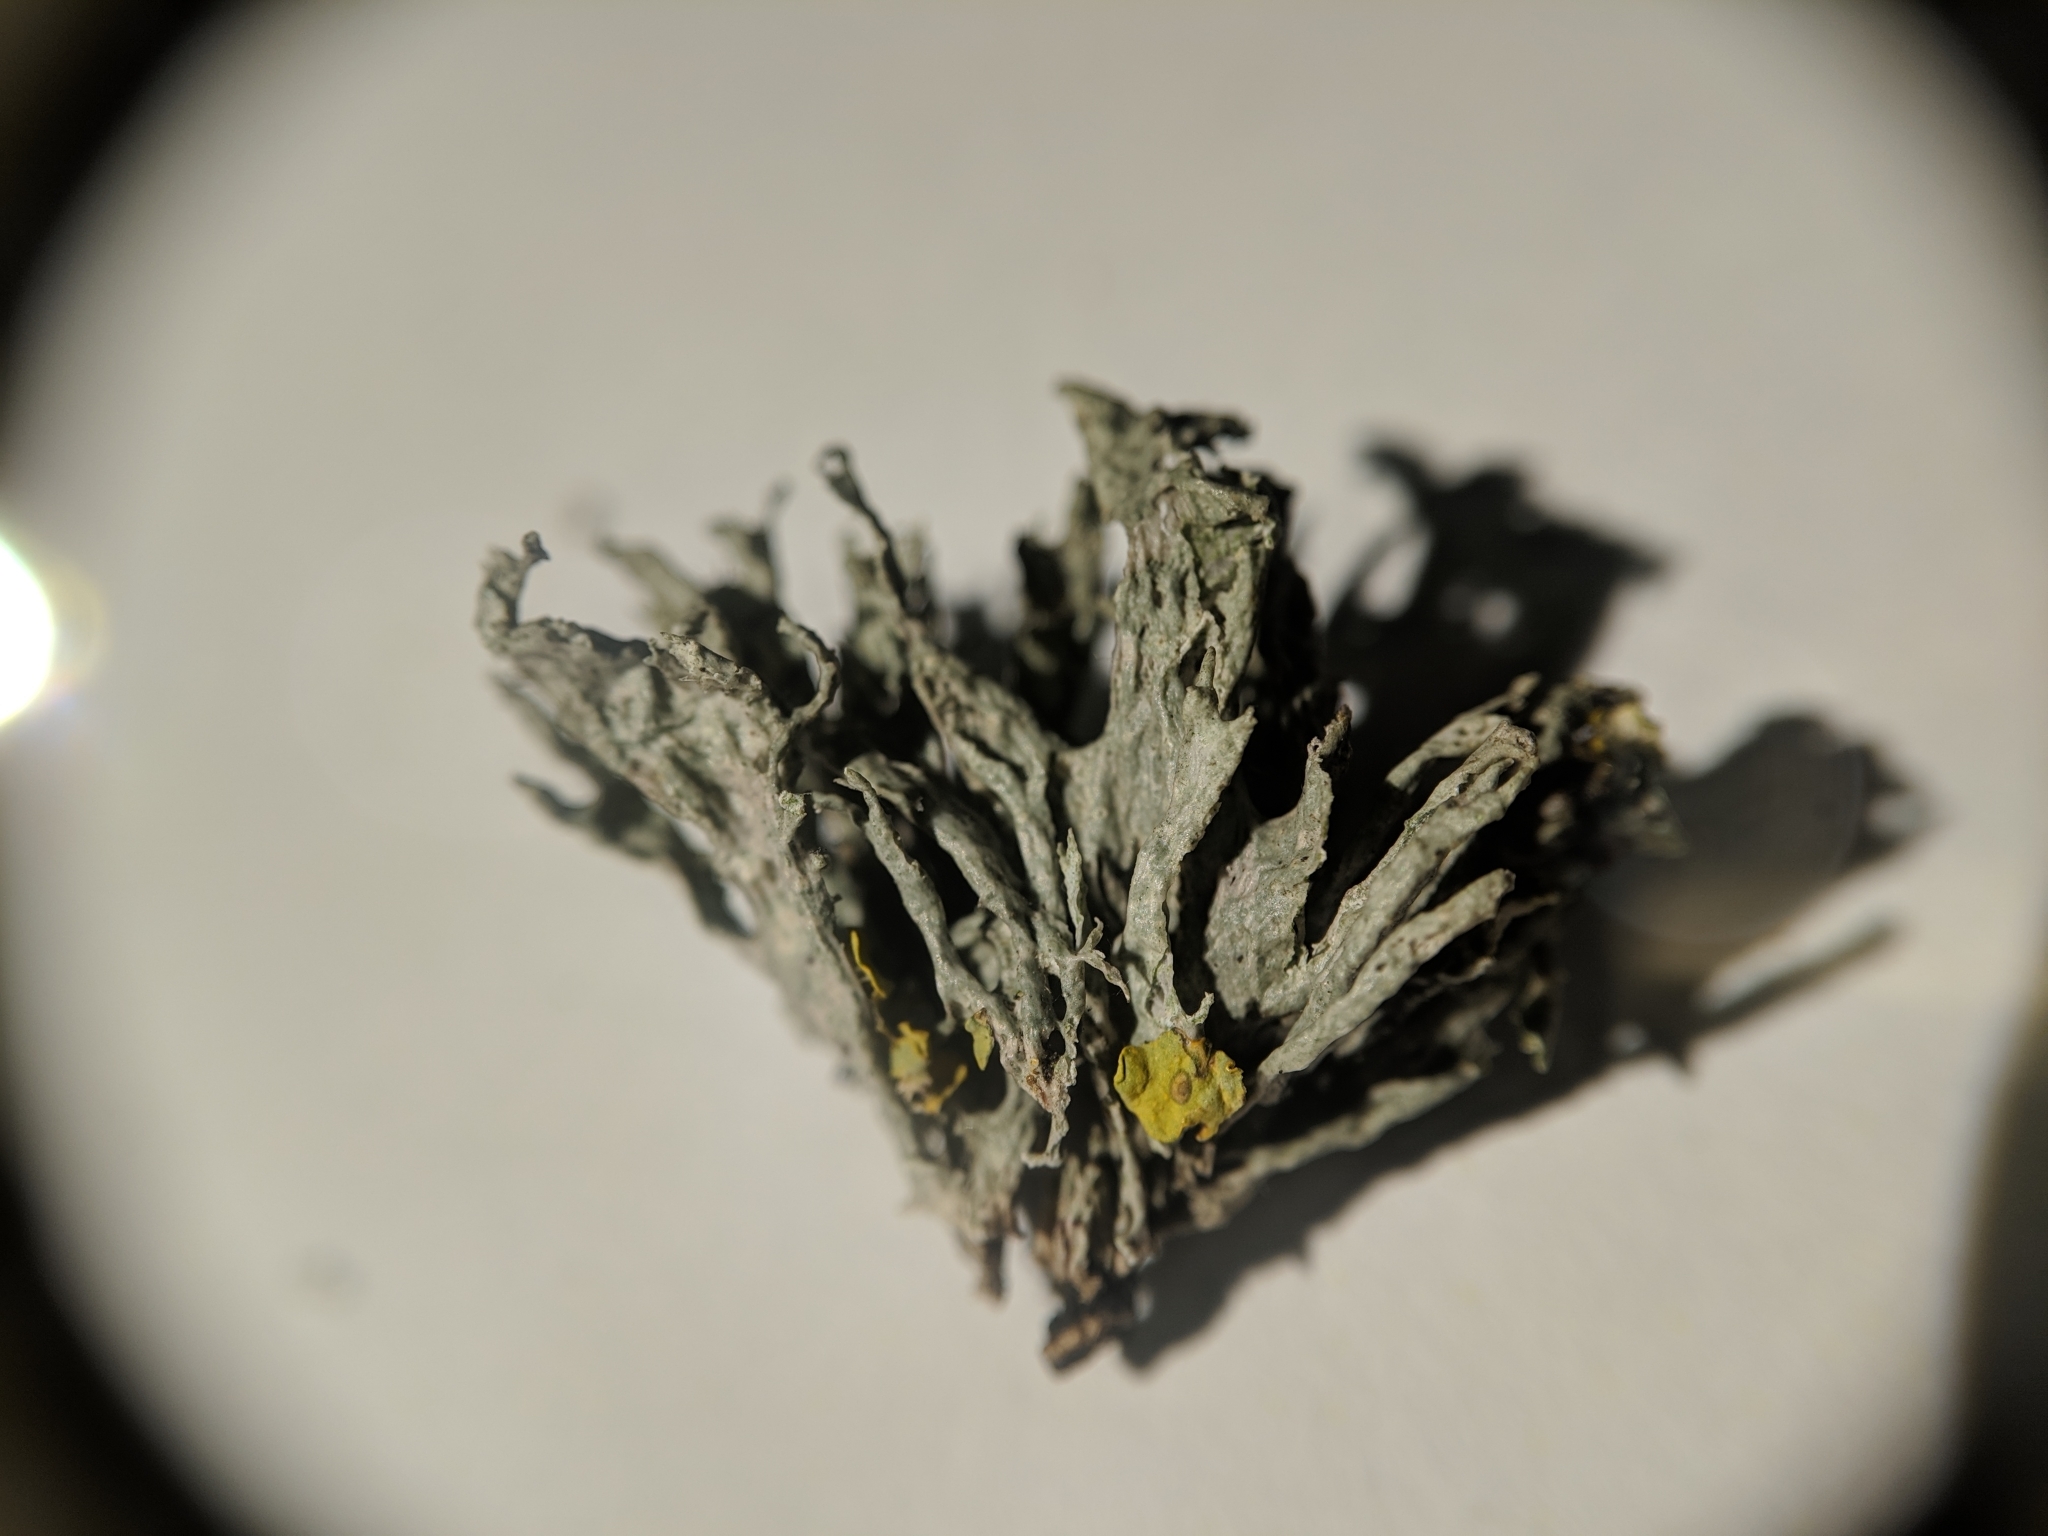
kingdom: Fungi
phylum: Ascomycota
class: Lecanoromycetes
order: Lecanorales
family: Ramalinaceae
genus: Ramalina
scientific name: Ramalina
